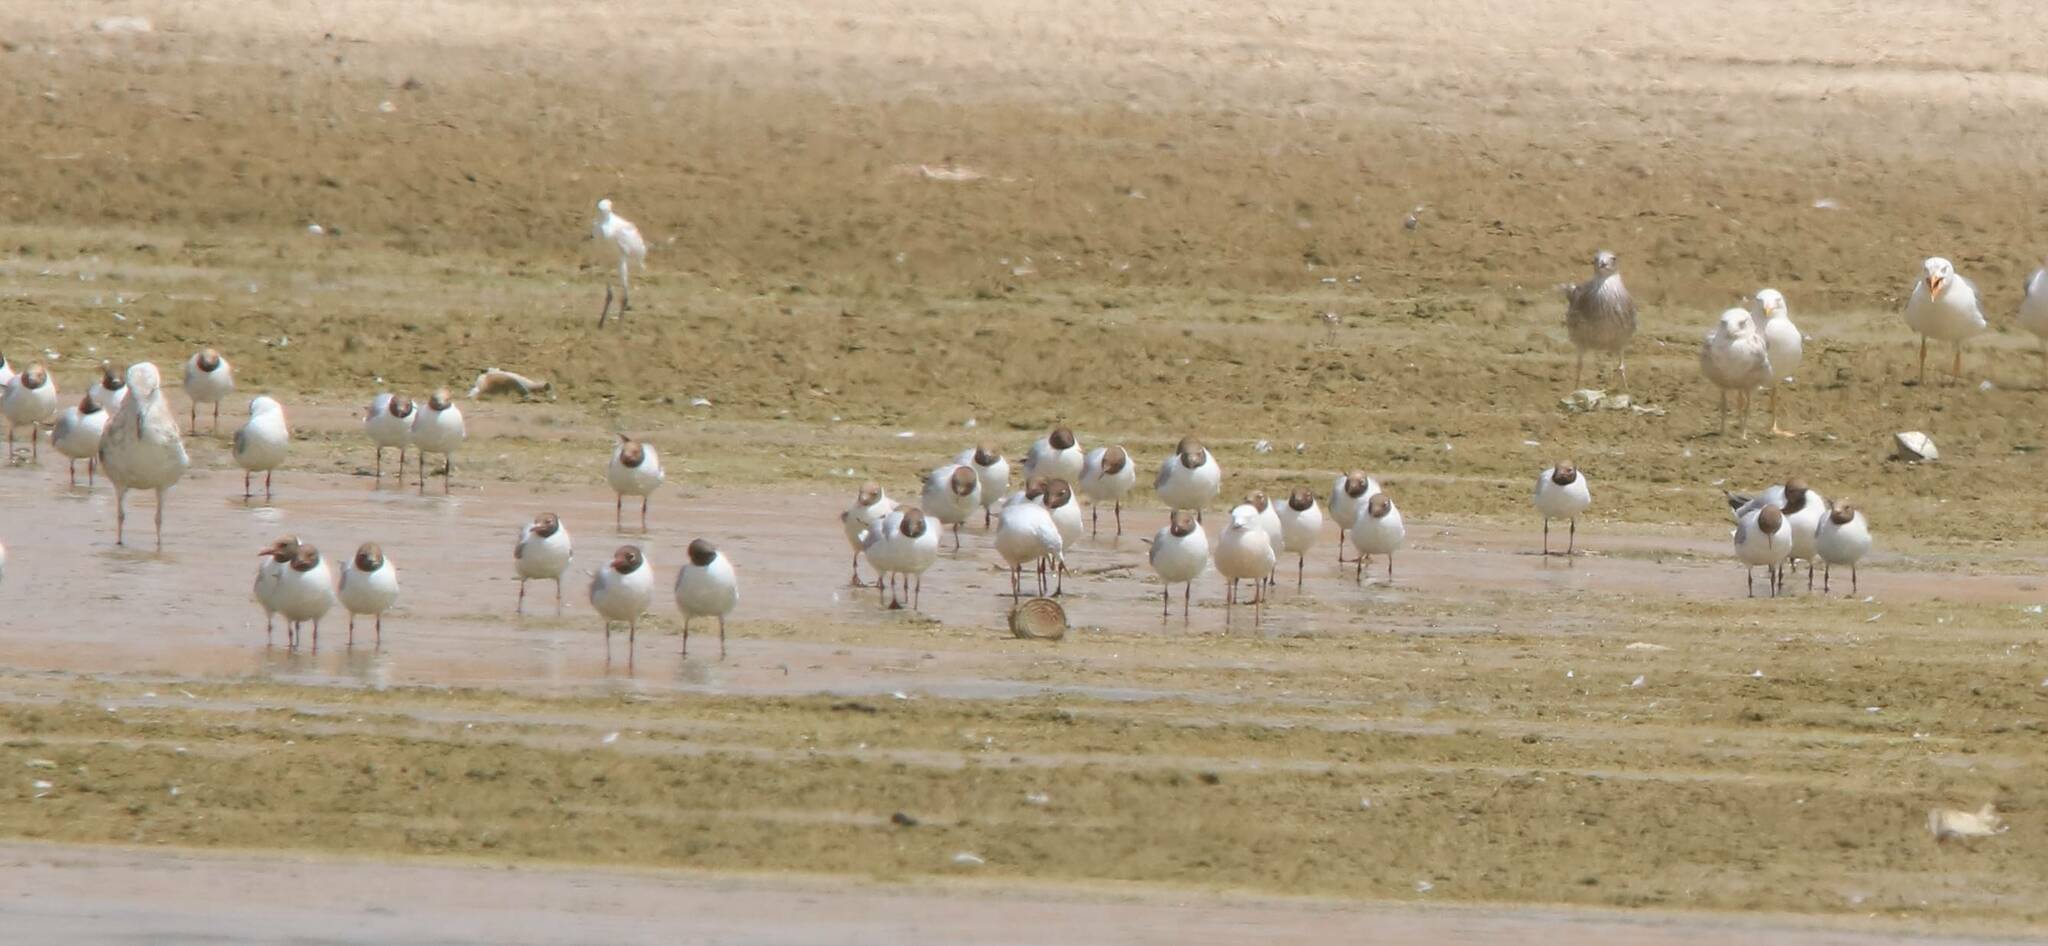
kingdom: Animalia
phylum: Chordata
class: Aves
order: Charadriiformes
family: Laridae
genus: Chroicocephalus
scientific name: Chroicocephalus ridibundus
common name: Black-headed gull
